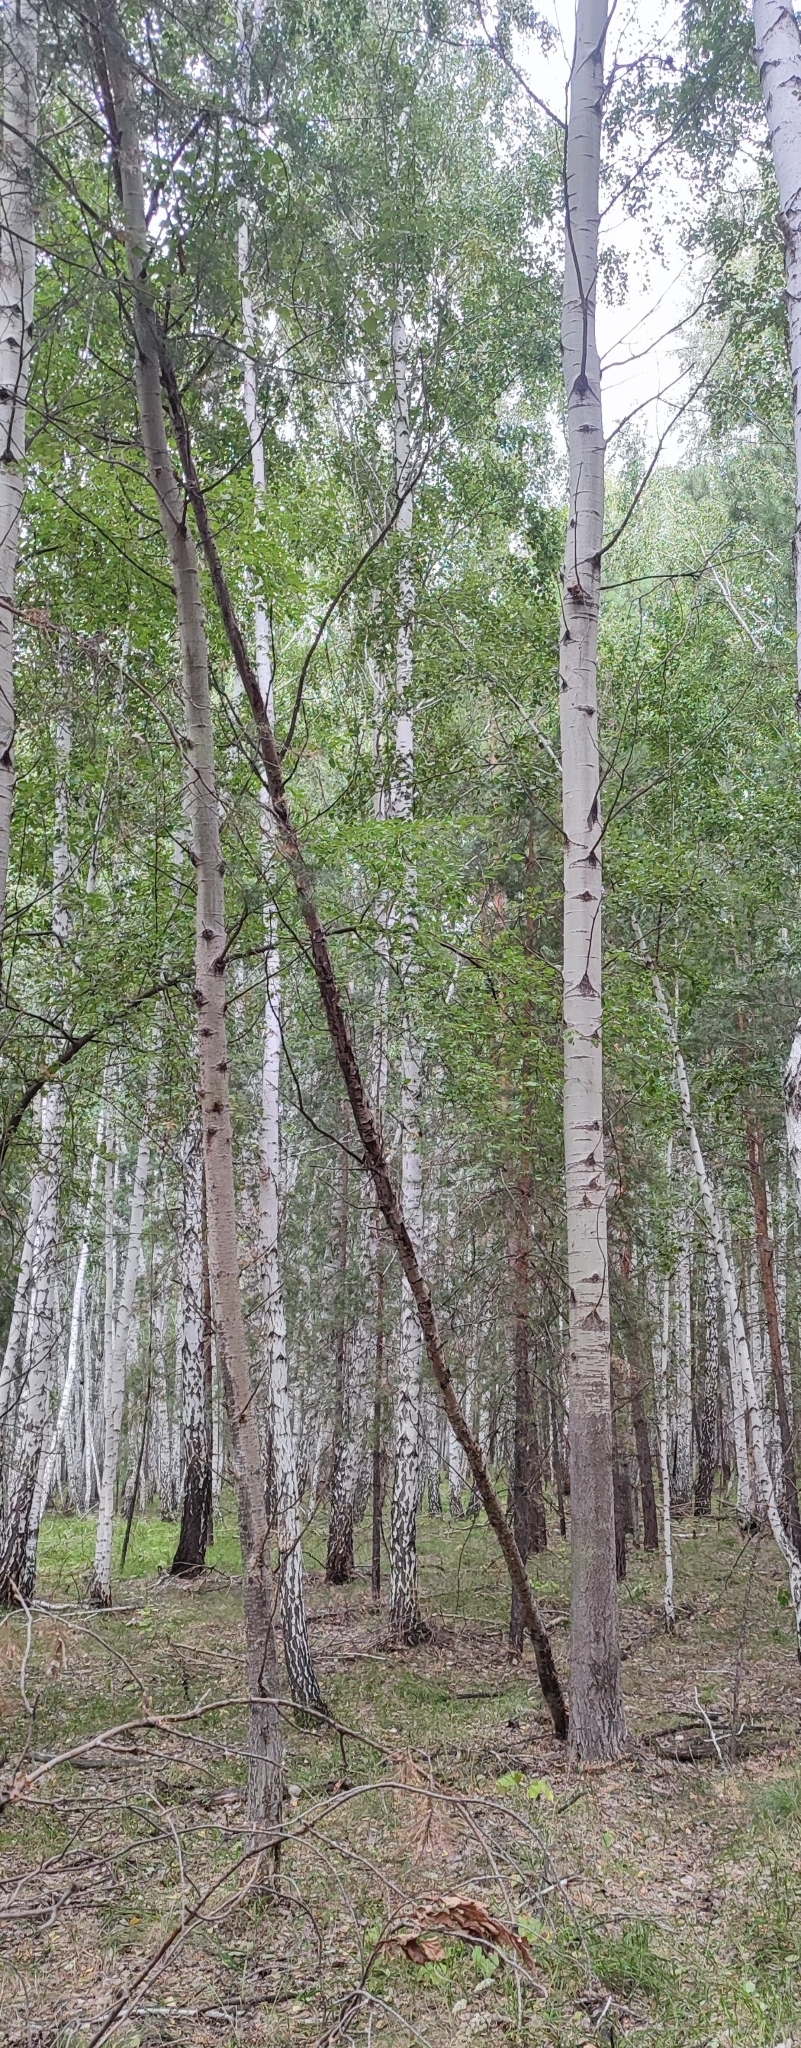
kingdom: Plantae
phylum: Tracheophyta
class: Magnoliopsida
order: Malpighiales
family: Salicaceae
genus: Populus
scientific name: Populus tremula
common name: European aspen
